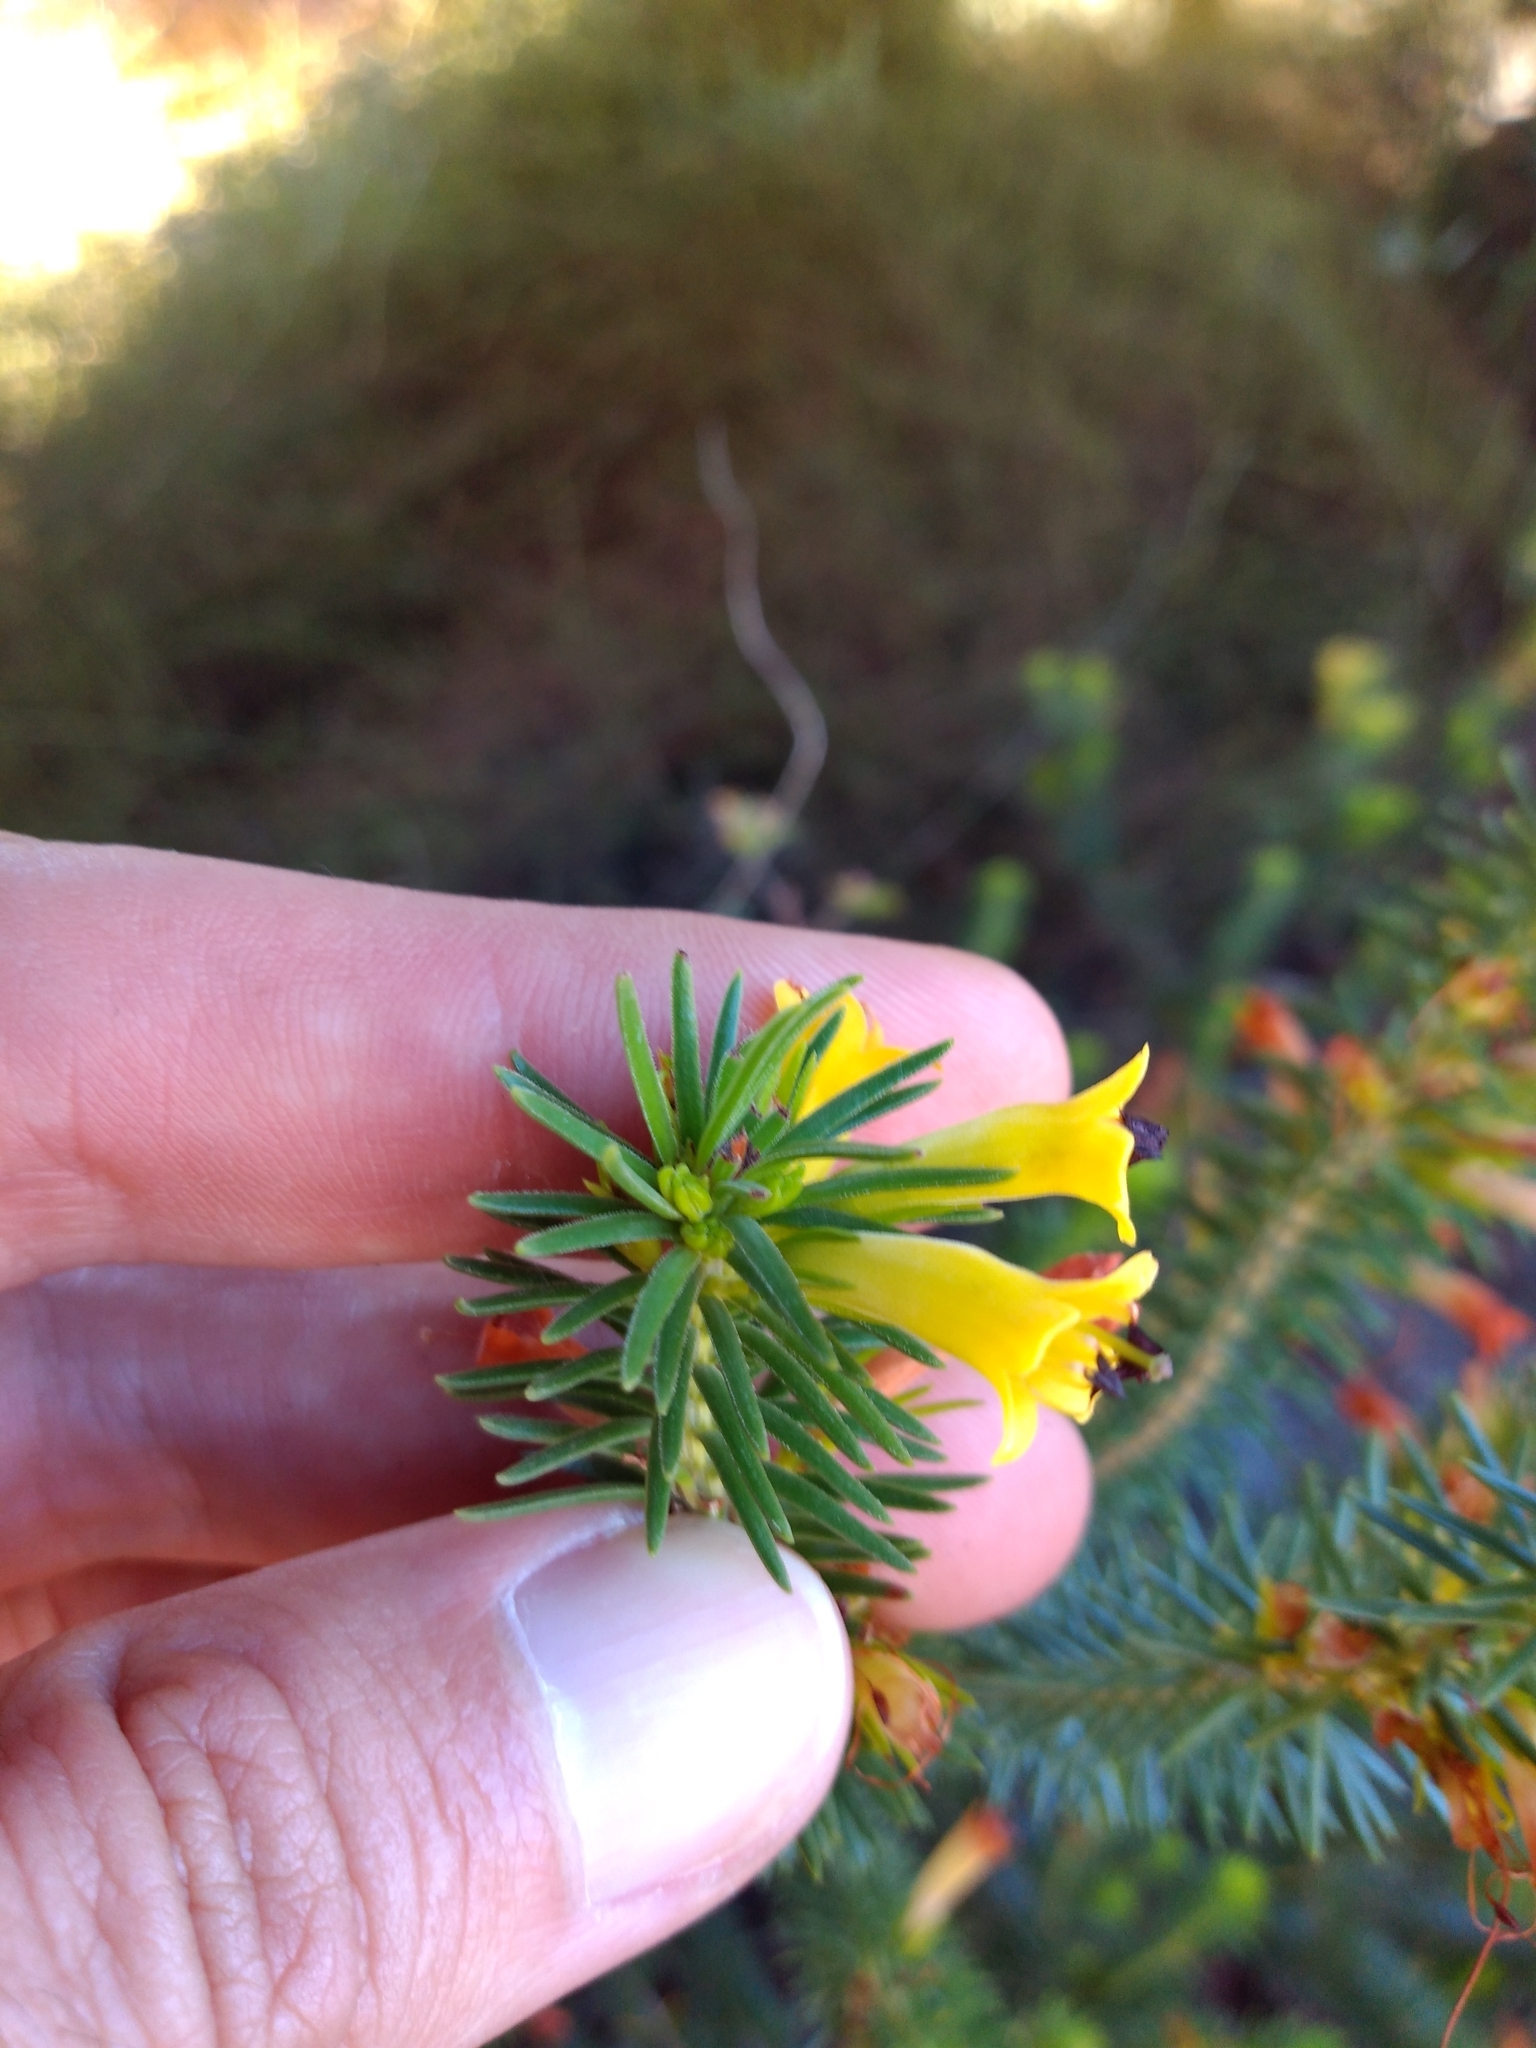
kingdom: Plantae
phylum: Tracheophyta
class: Magnoliopsida
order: Ericales
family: Ericaceae
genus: Erica
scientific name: Erica situshiemalis
